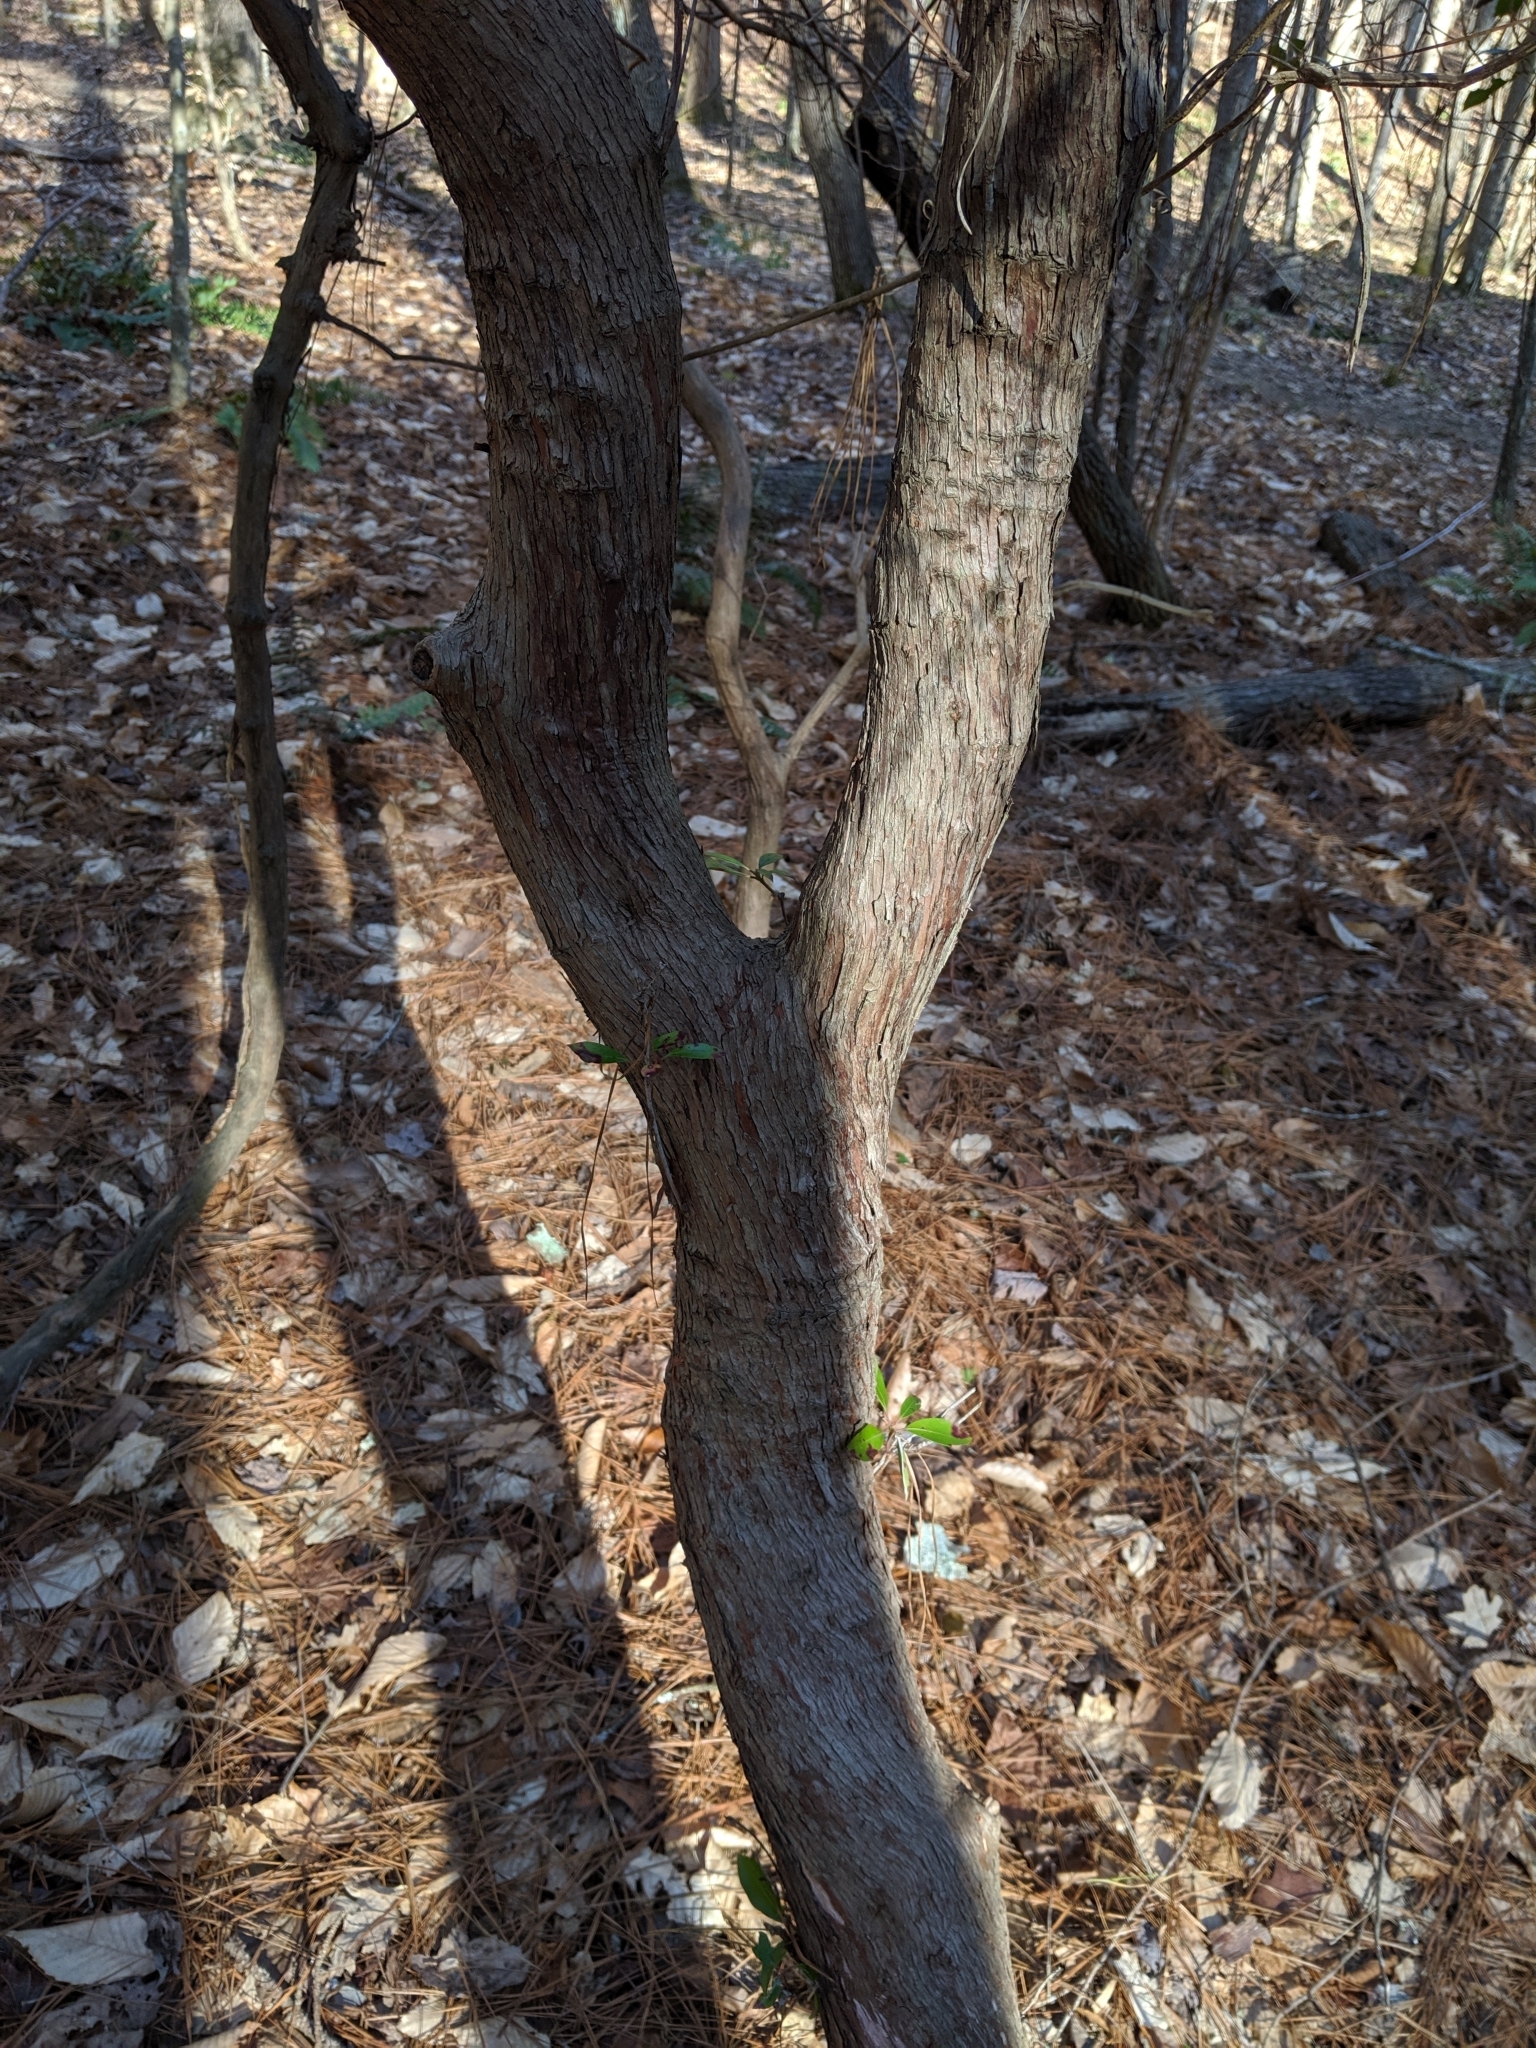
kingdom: Plantae
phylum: Tracheophyta
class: Magnoliopsida
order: Ericales
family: Ericaceae
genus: Kalmia
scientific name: Kalmia latifolia
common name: Mountain-laurel
